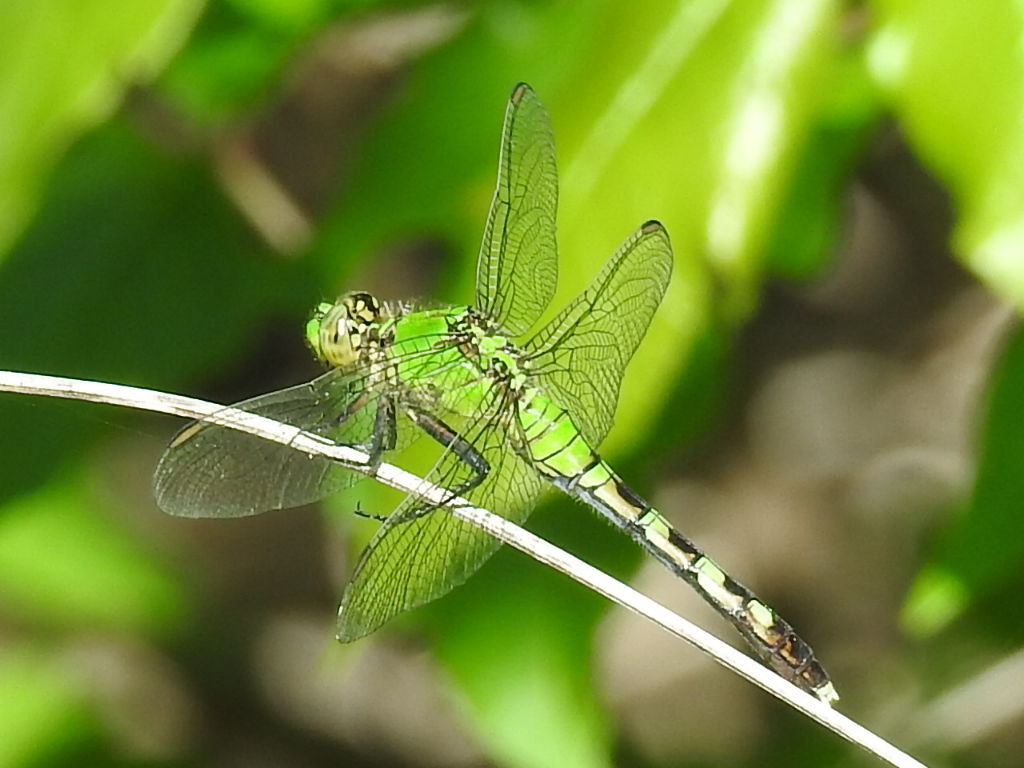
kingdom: Animalia
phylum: Arthropoda
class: Insecta
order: Odonata
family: Libellulidae
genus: Erythemis
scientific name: Erythemis simplicicollis
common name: Eastern pondhawk
